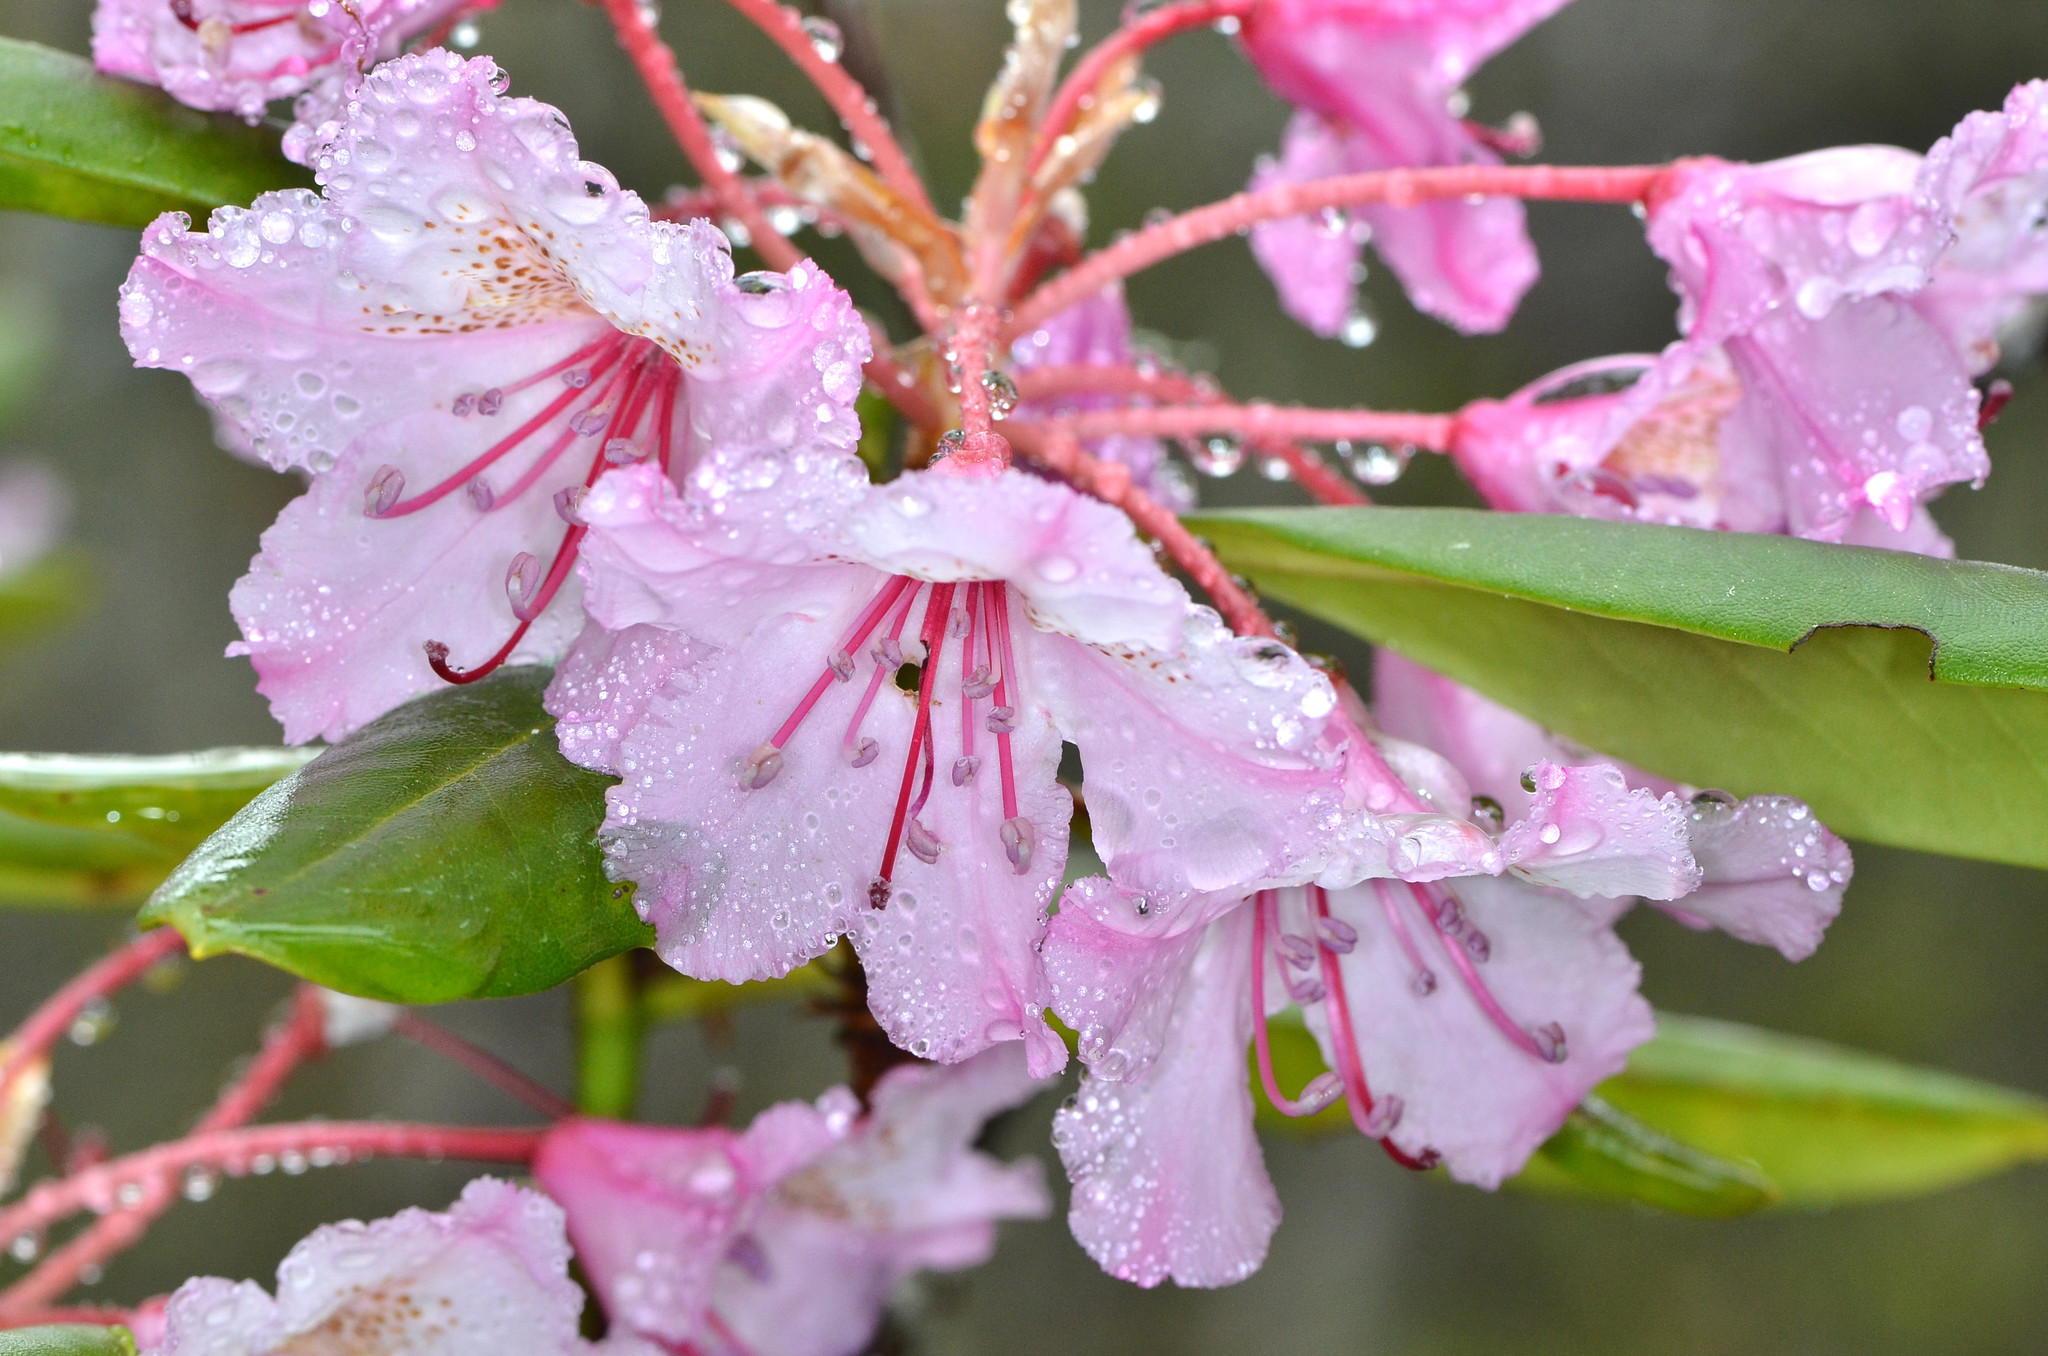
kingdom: Plantae
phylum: Tracheophyta
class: Magnoliopsida
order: Ericales
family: Ericaceae
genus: Rhododendron
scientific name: Rhododendron macrophyllum
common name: California rose bay
